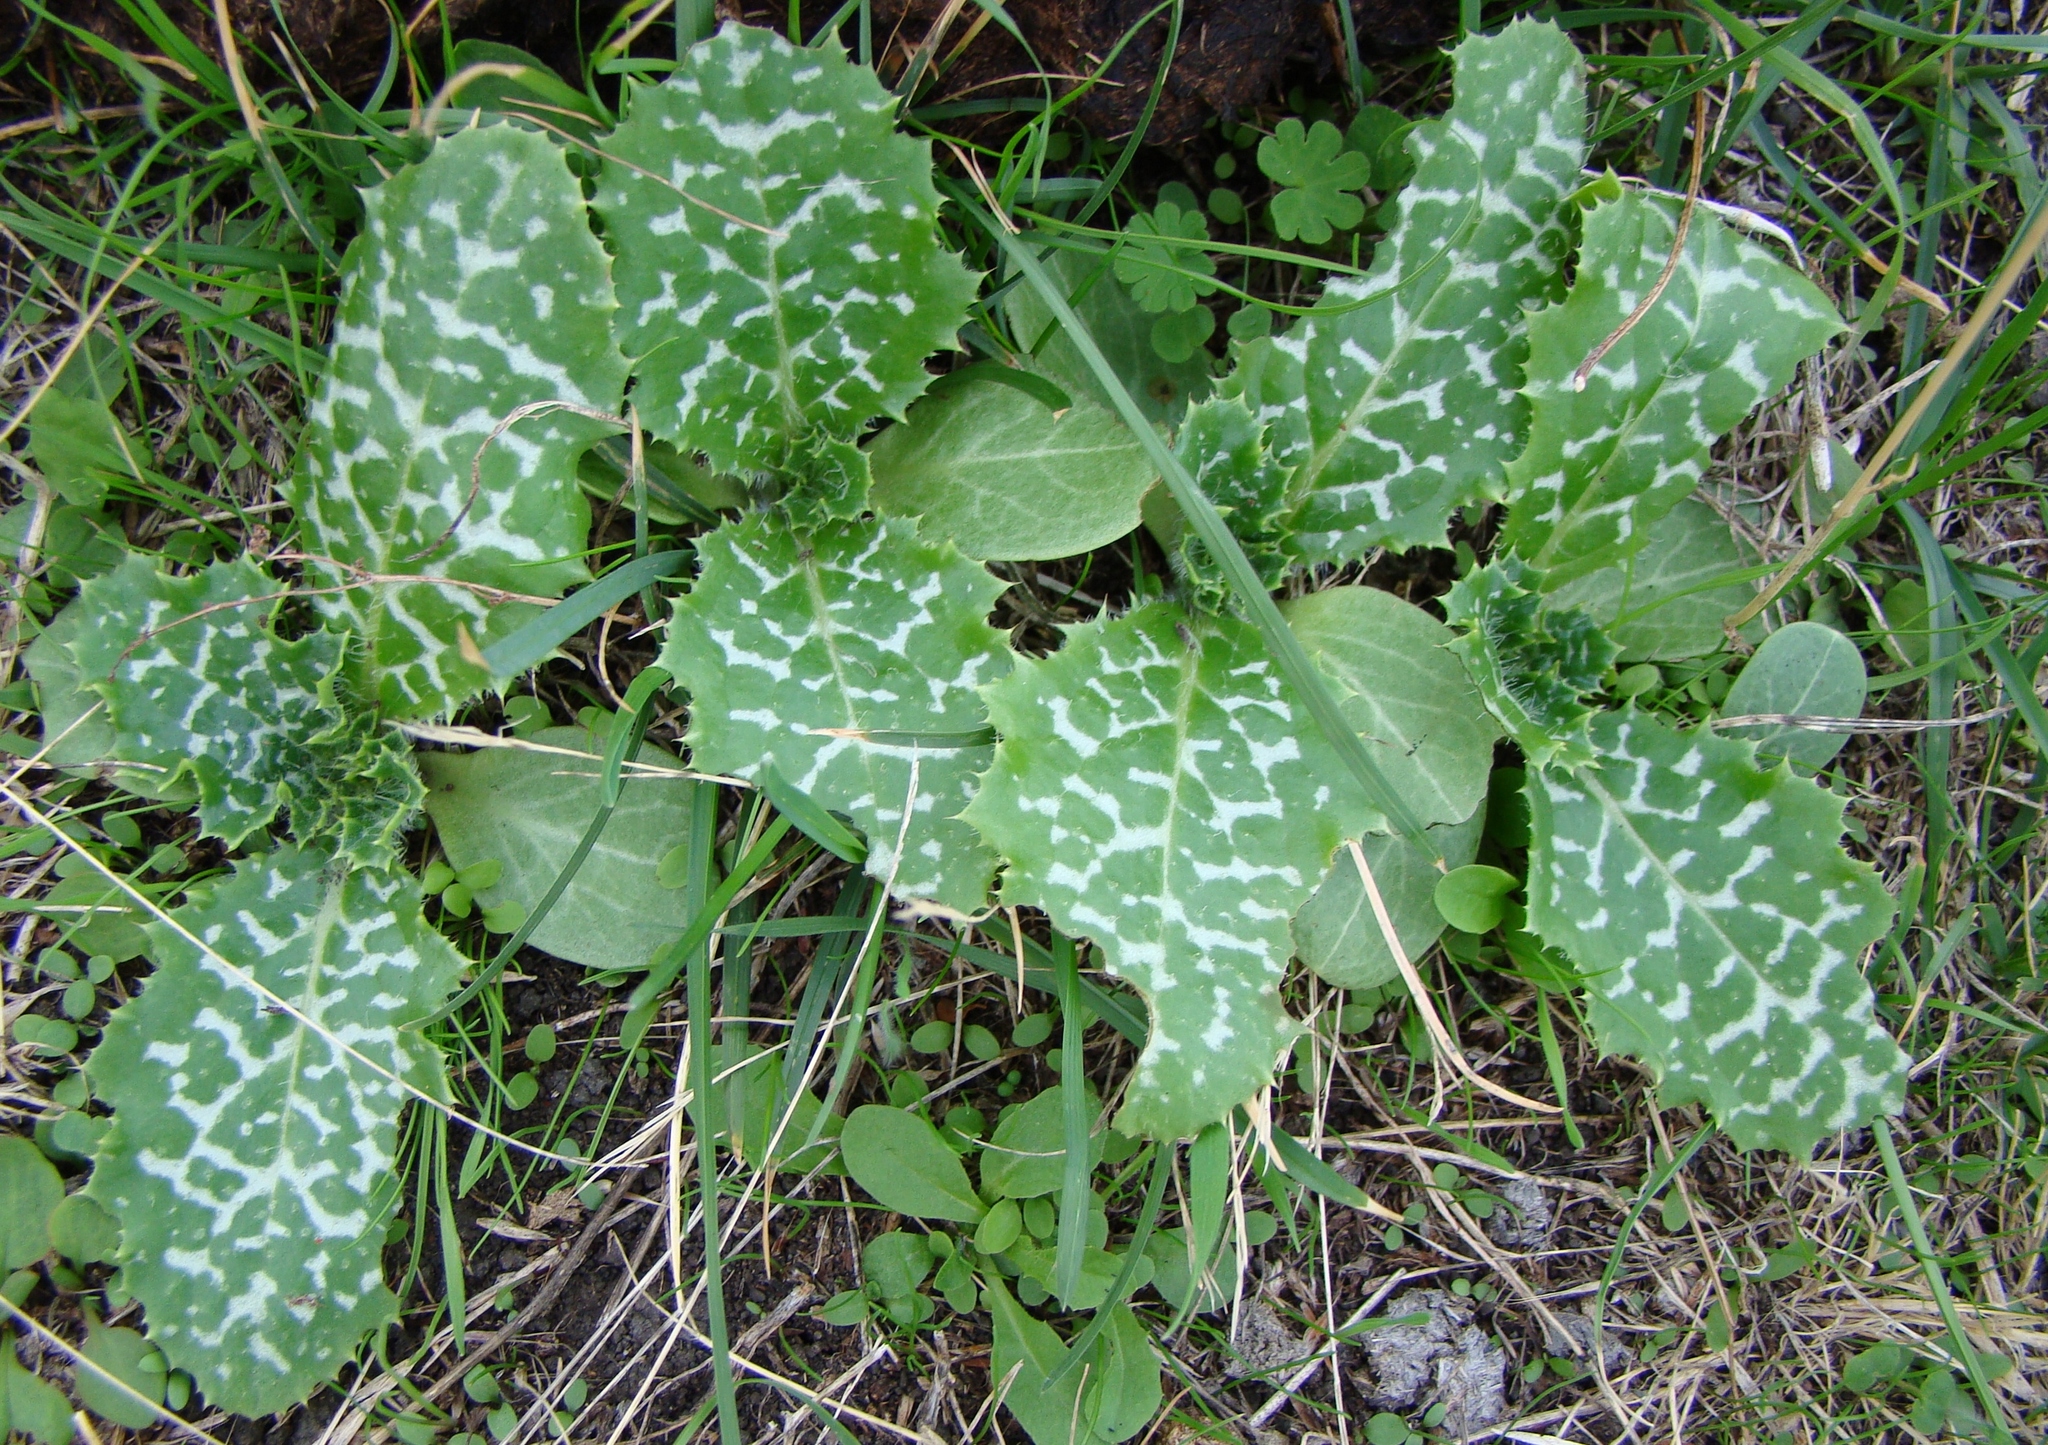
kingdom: Plantae
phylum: Tracheophyta
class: Magnoliopsida
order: Asterales
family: Asteraceae
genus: Silybum
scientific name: Silybum marianum
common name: Milk thistle
